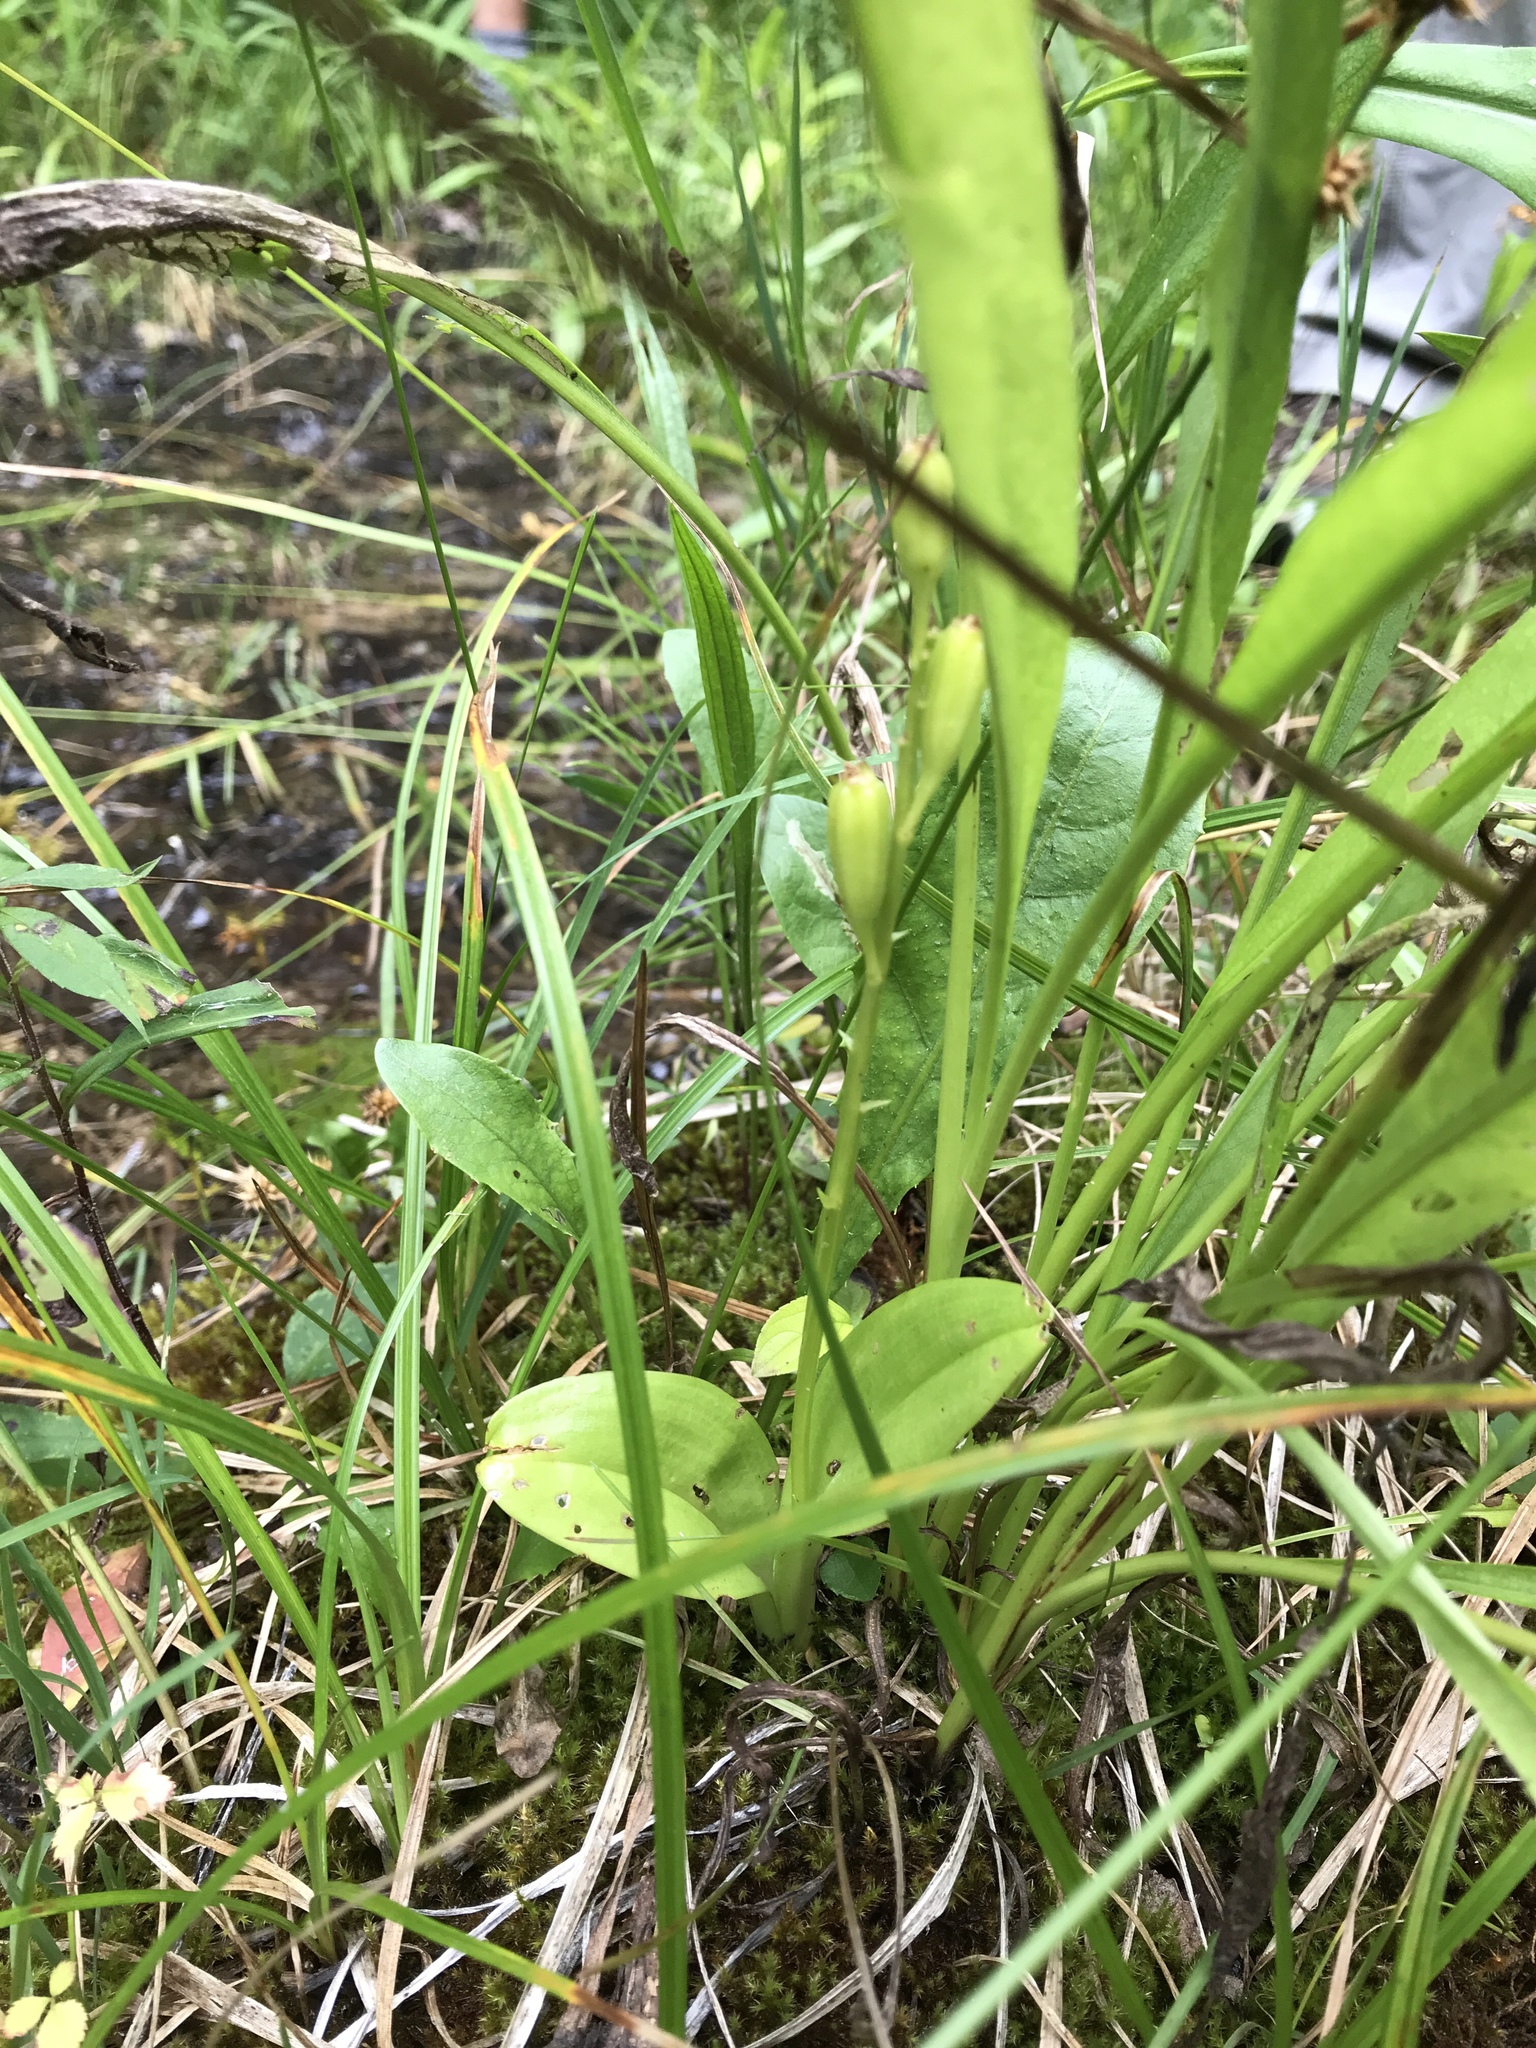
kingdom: Animalia
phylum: Arthropoda
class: Insecta
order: Coleoptera
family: Curculionidae
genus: Liparis
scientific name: Liparis loeselii
